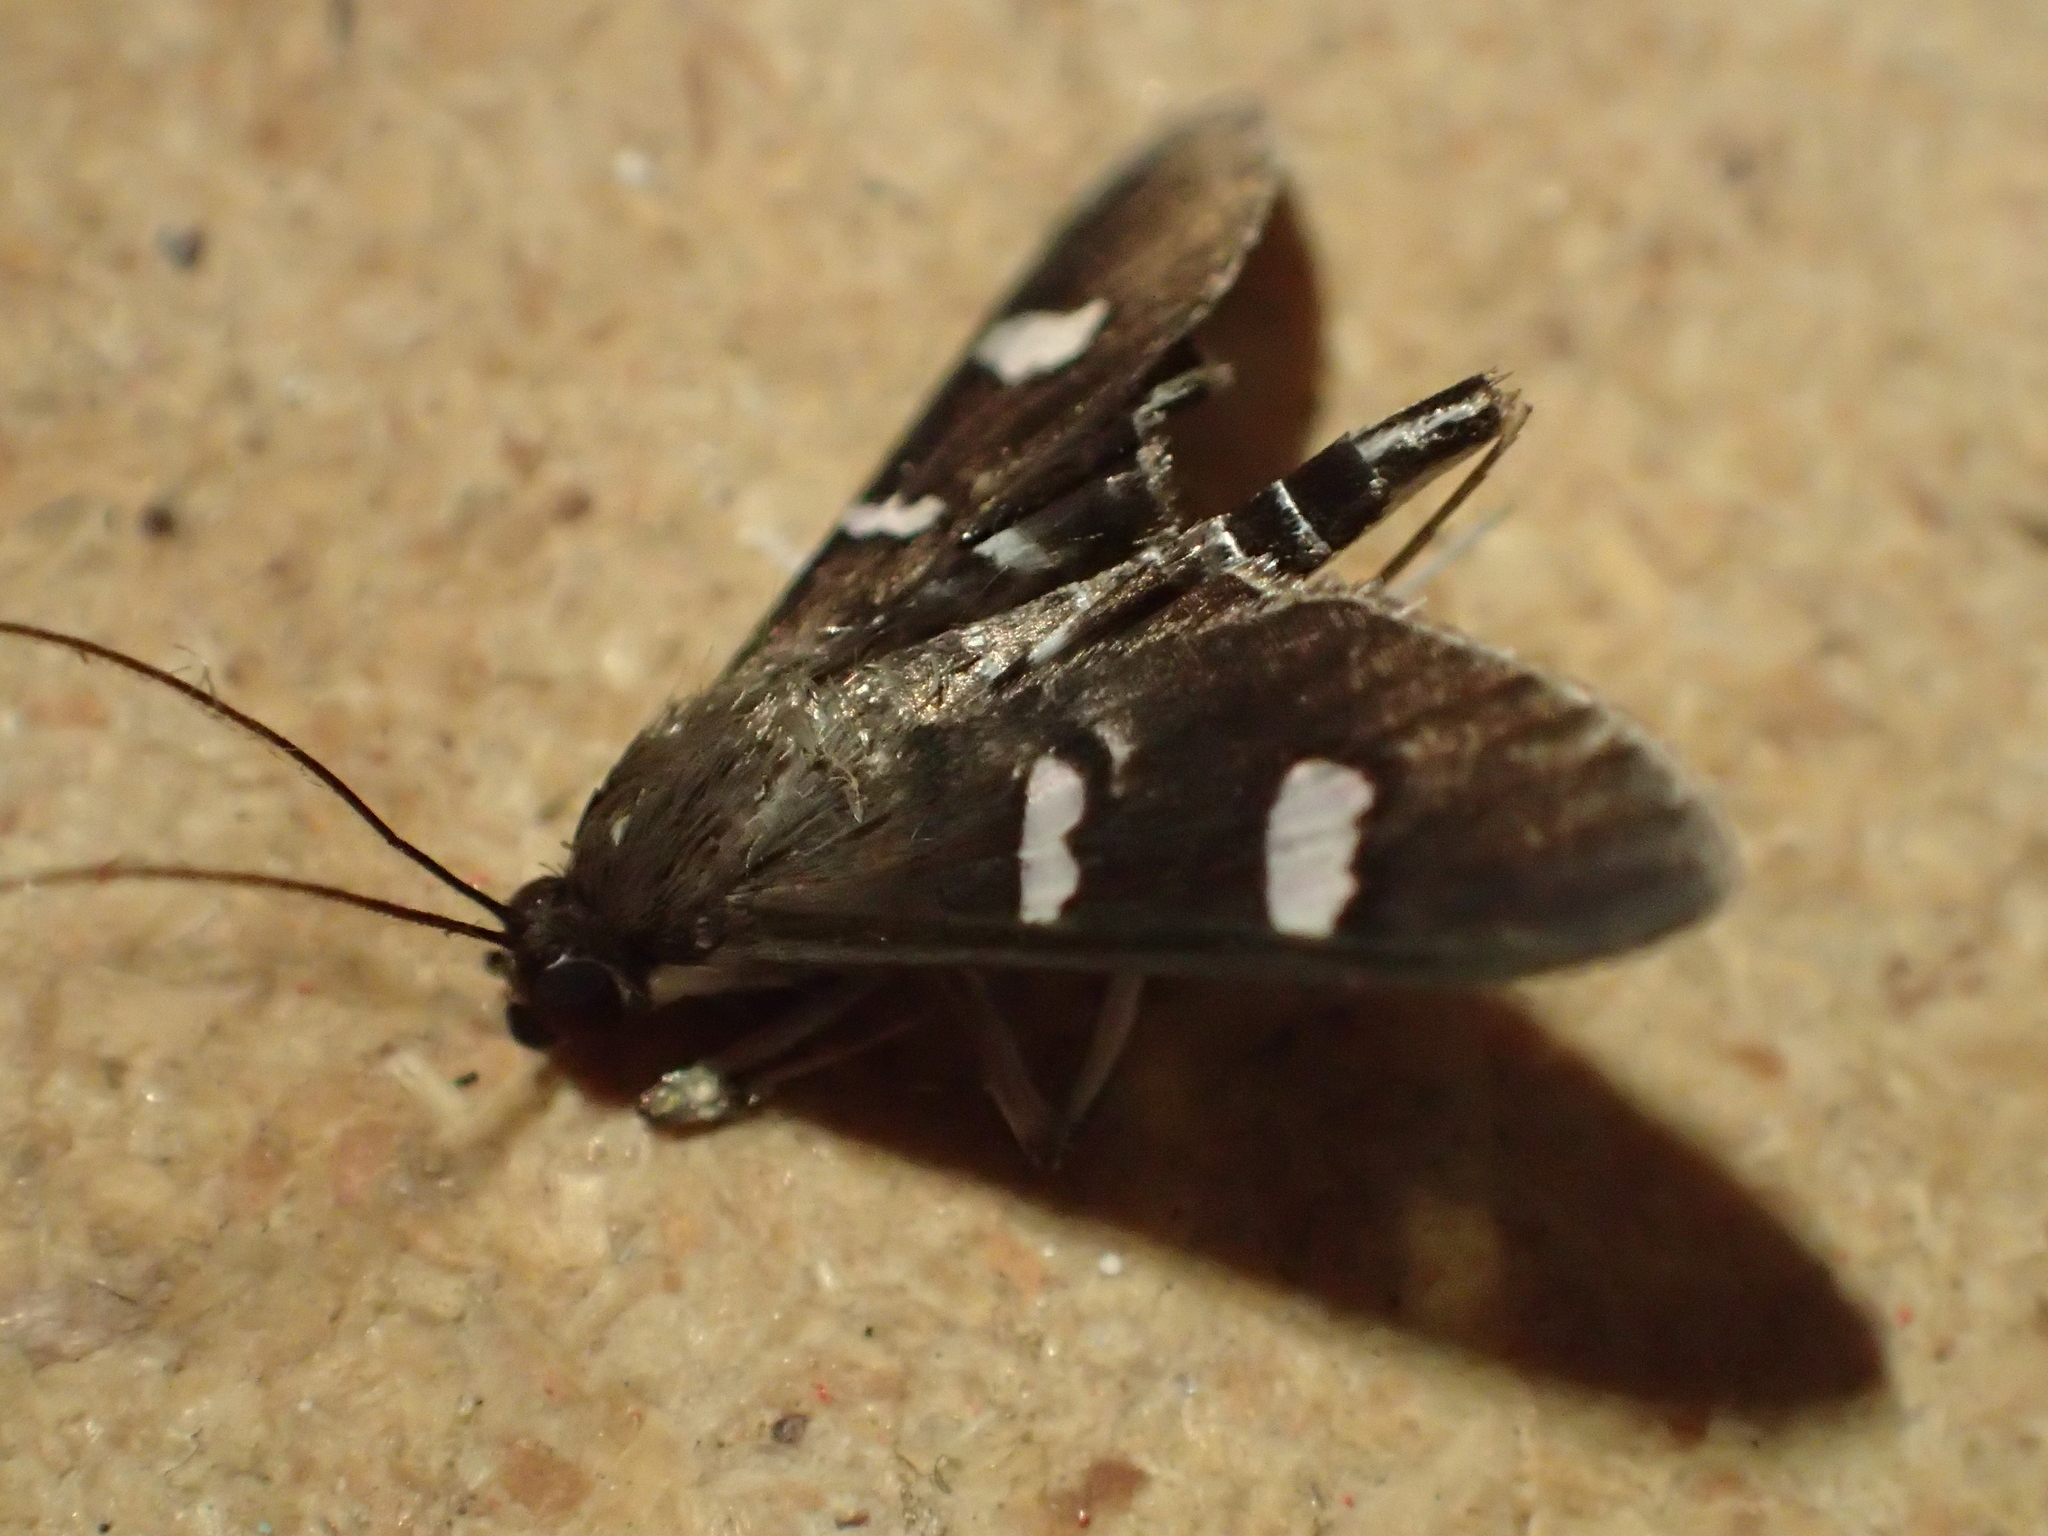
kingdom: Animalia
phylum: Arthropoda
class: Insecta
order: Lepidoptera
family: Crambidae
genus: Desmia
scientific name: Desmia ufeus
